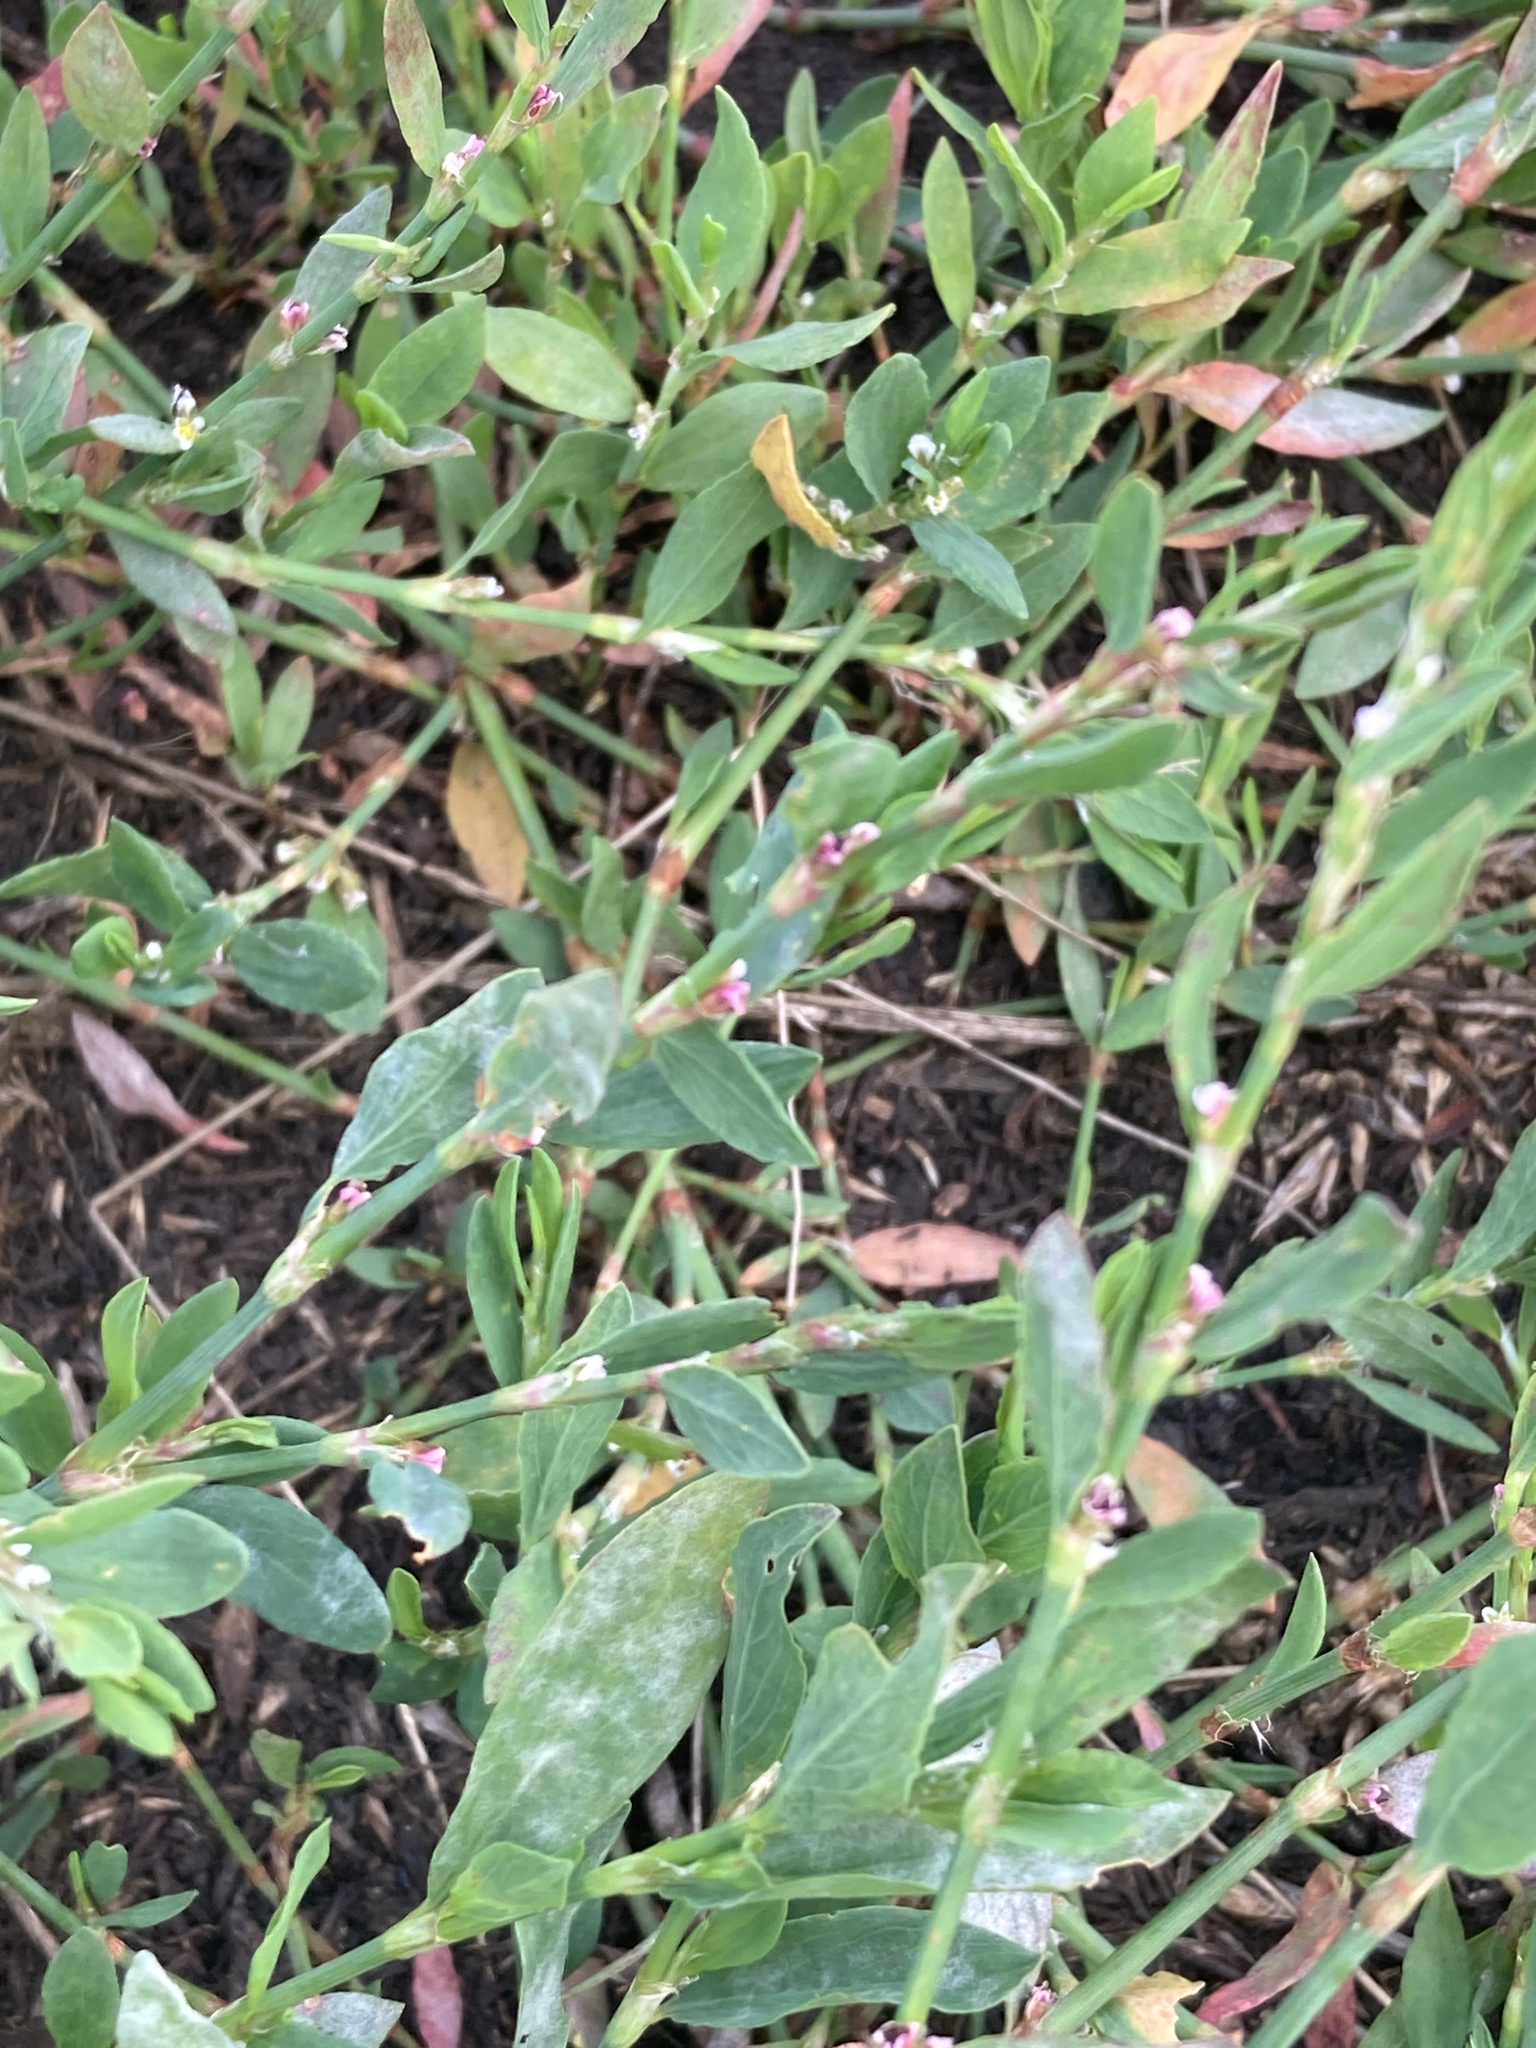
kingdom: Plantae
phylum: Tracheophyta
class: Magnoliopsida
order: Caryophyllales
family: Polygonaceae
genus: Polygonum
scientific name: Polygonum
